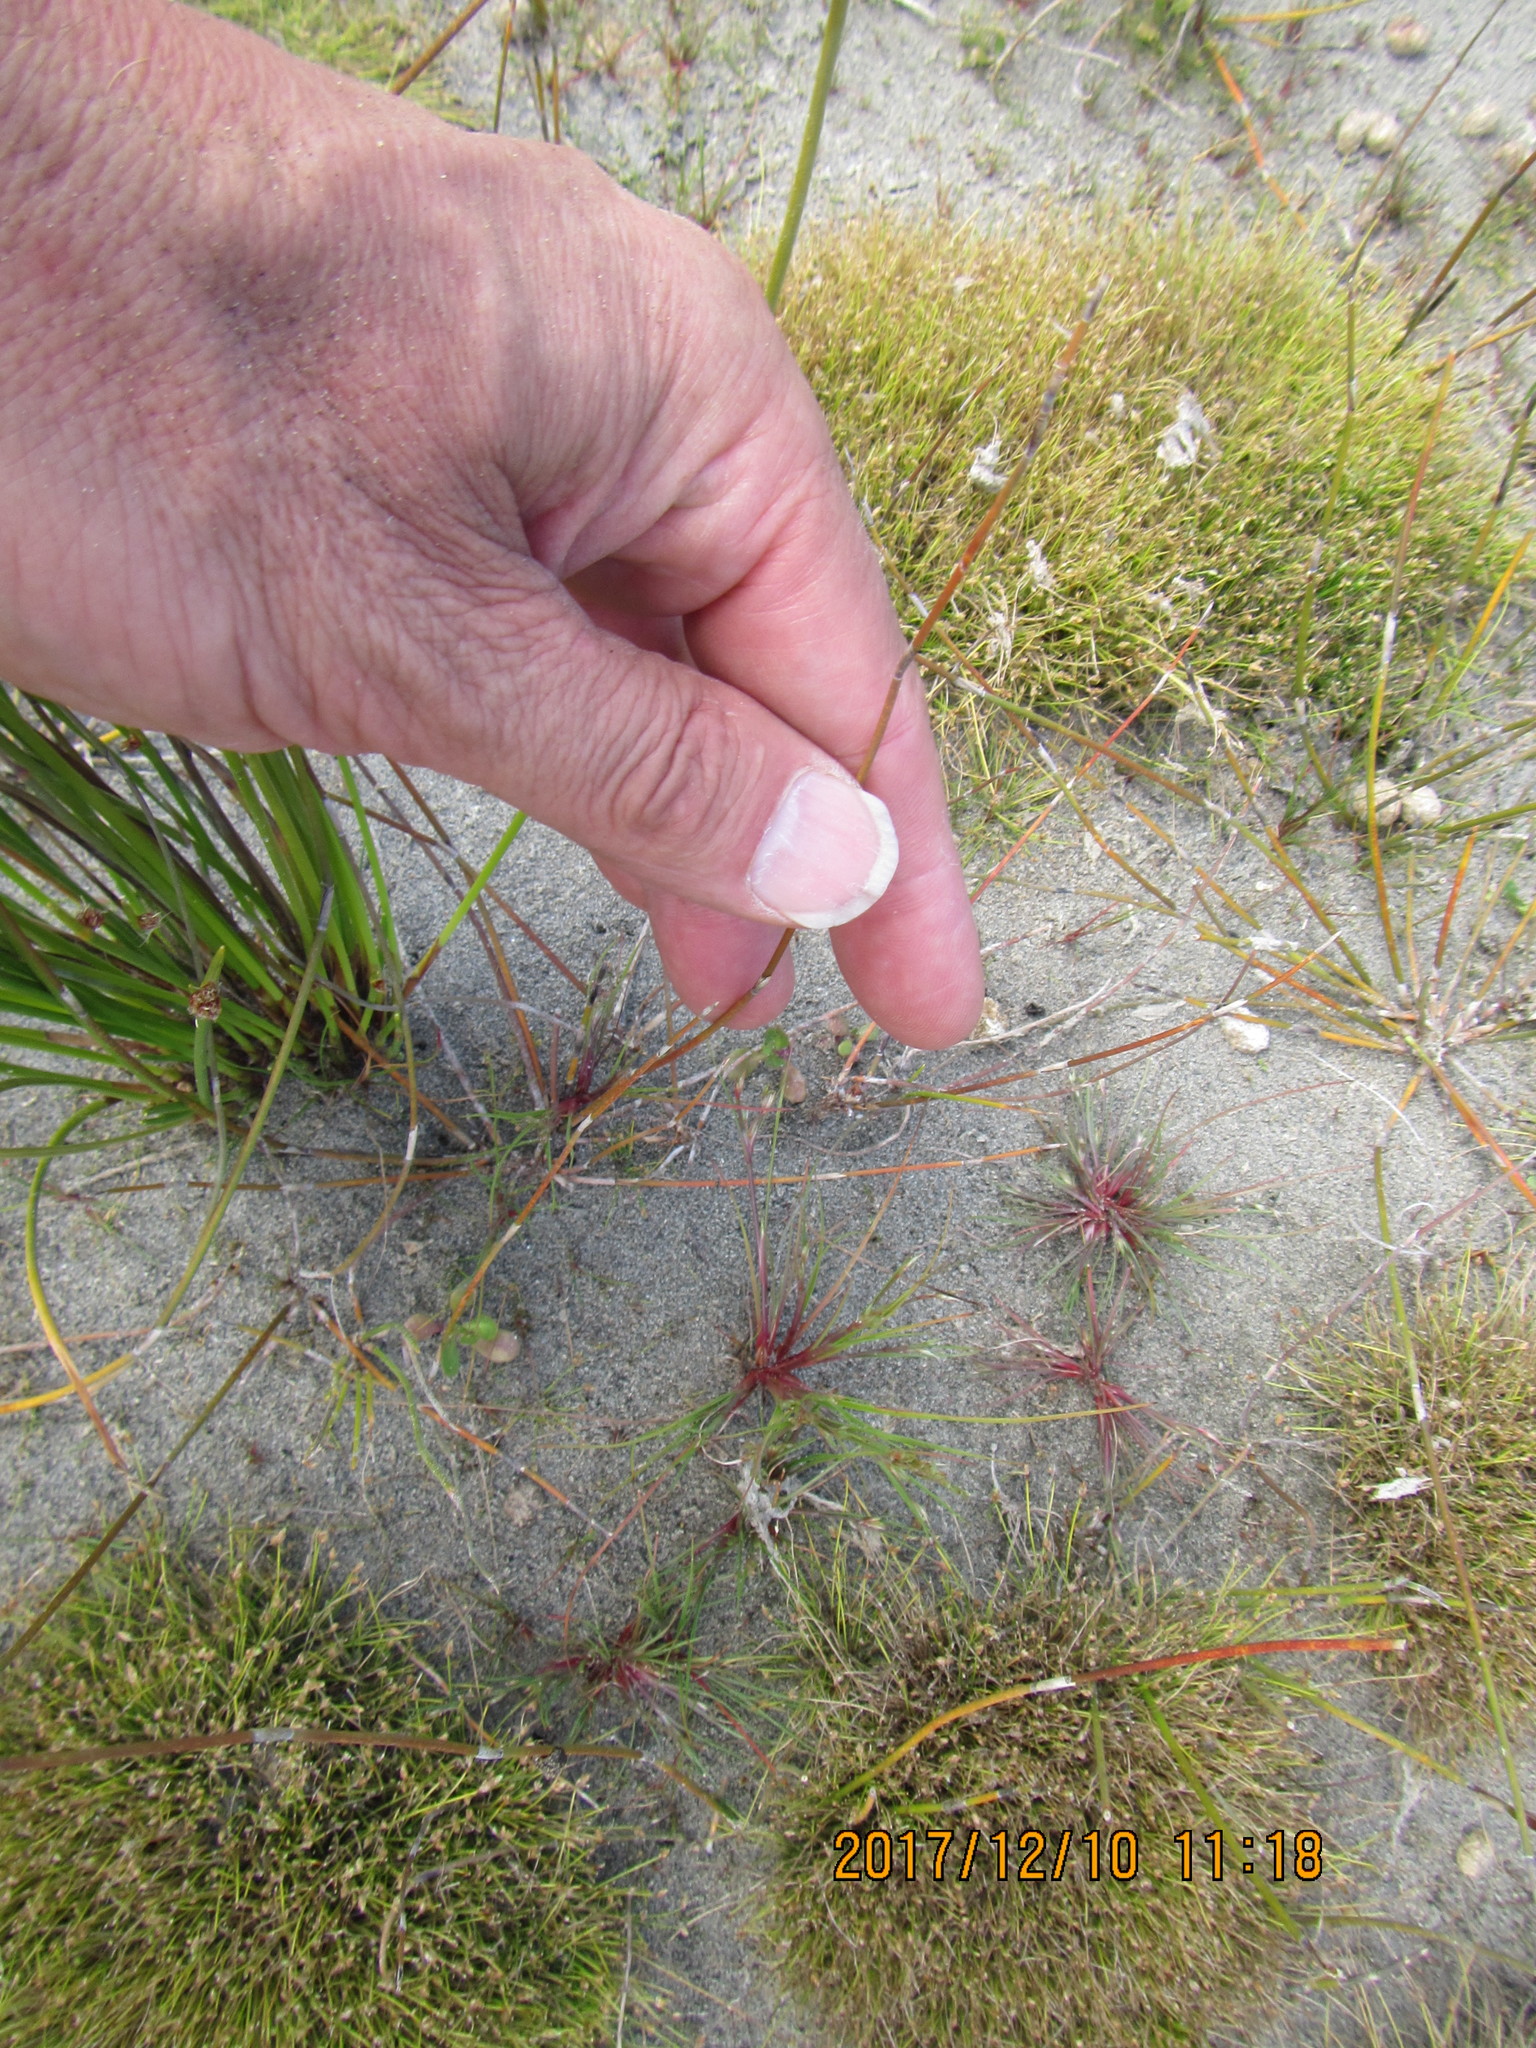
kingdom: Plantae
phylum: Tracheophyta
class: Liliopsida
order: Poales
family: Restionaceae
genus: Apodasmia
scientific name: Apodasmia similis
